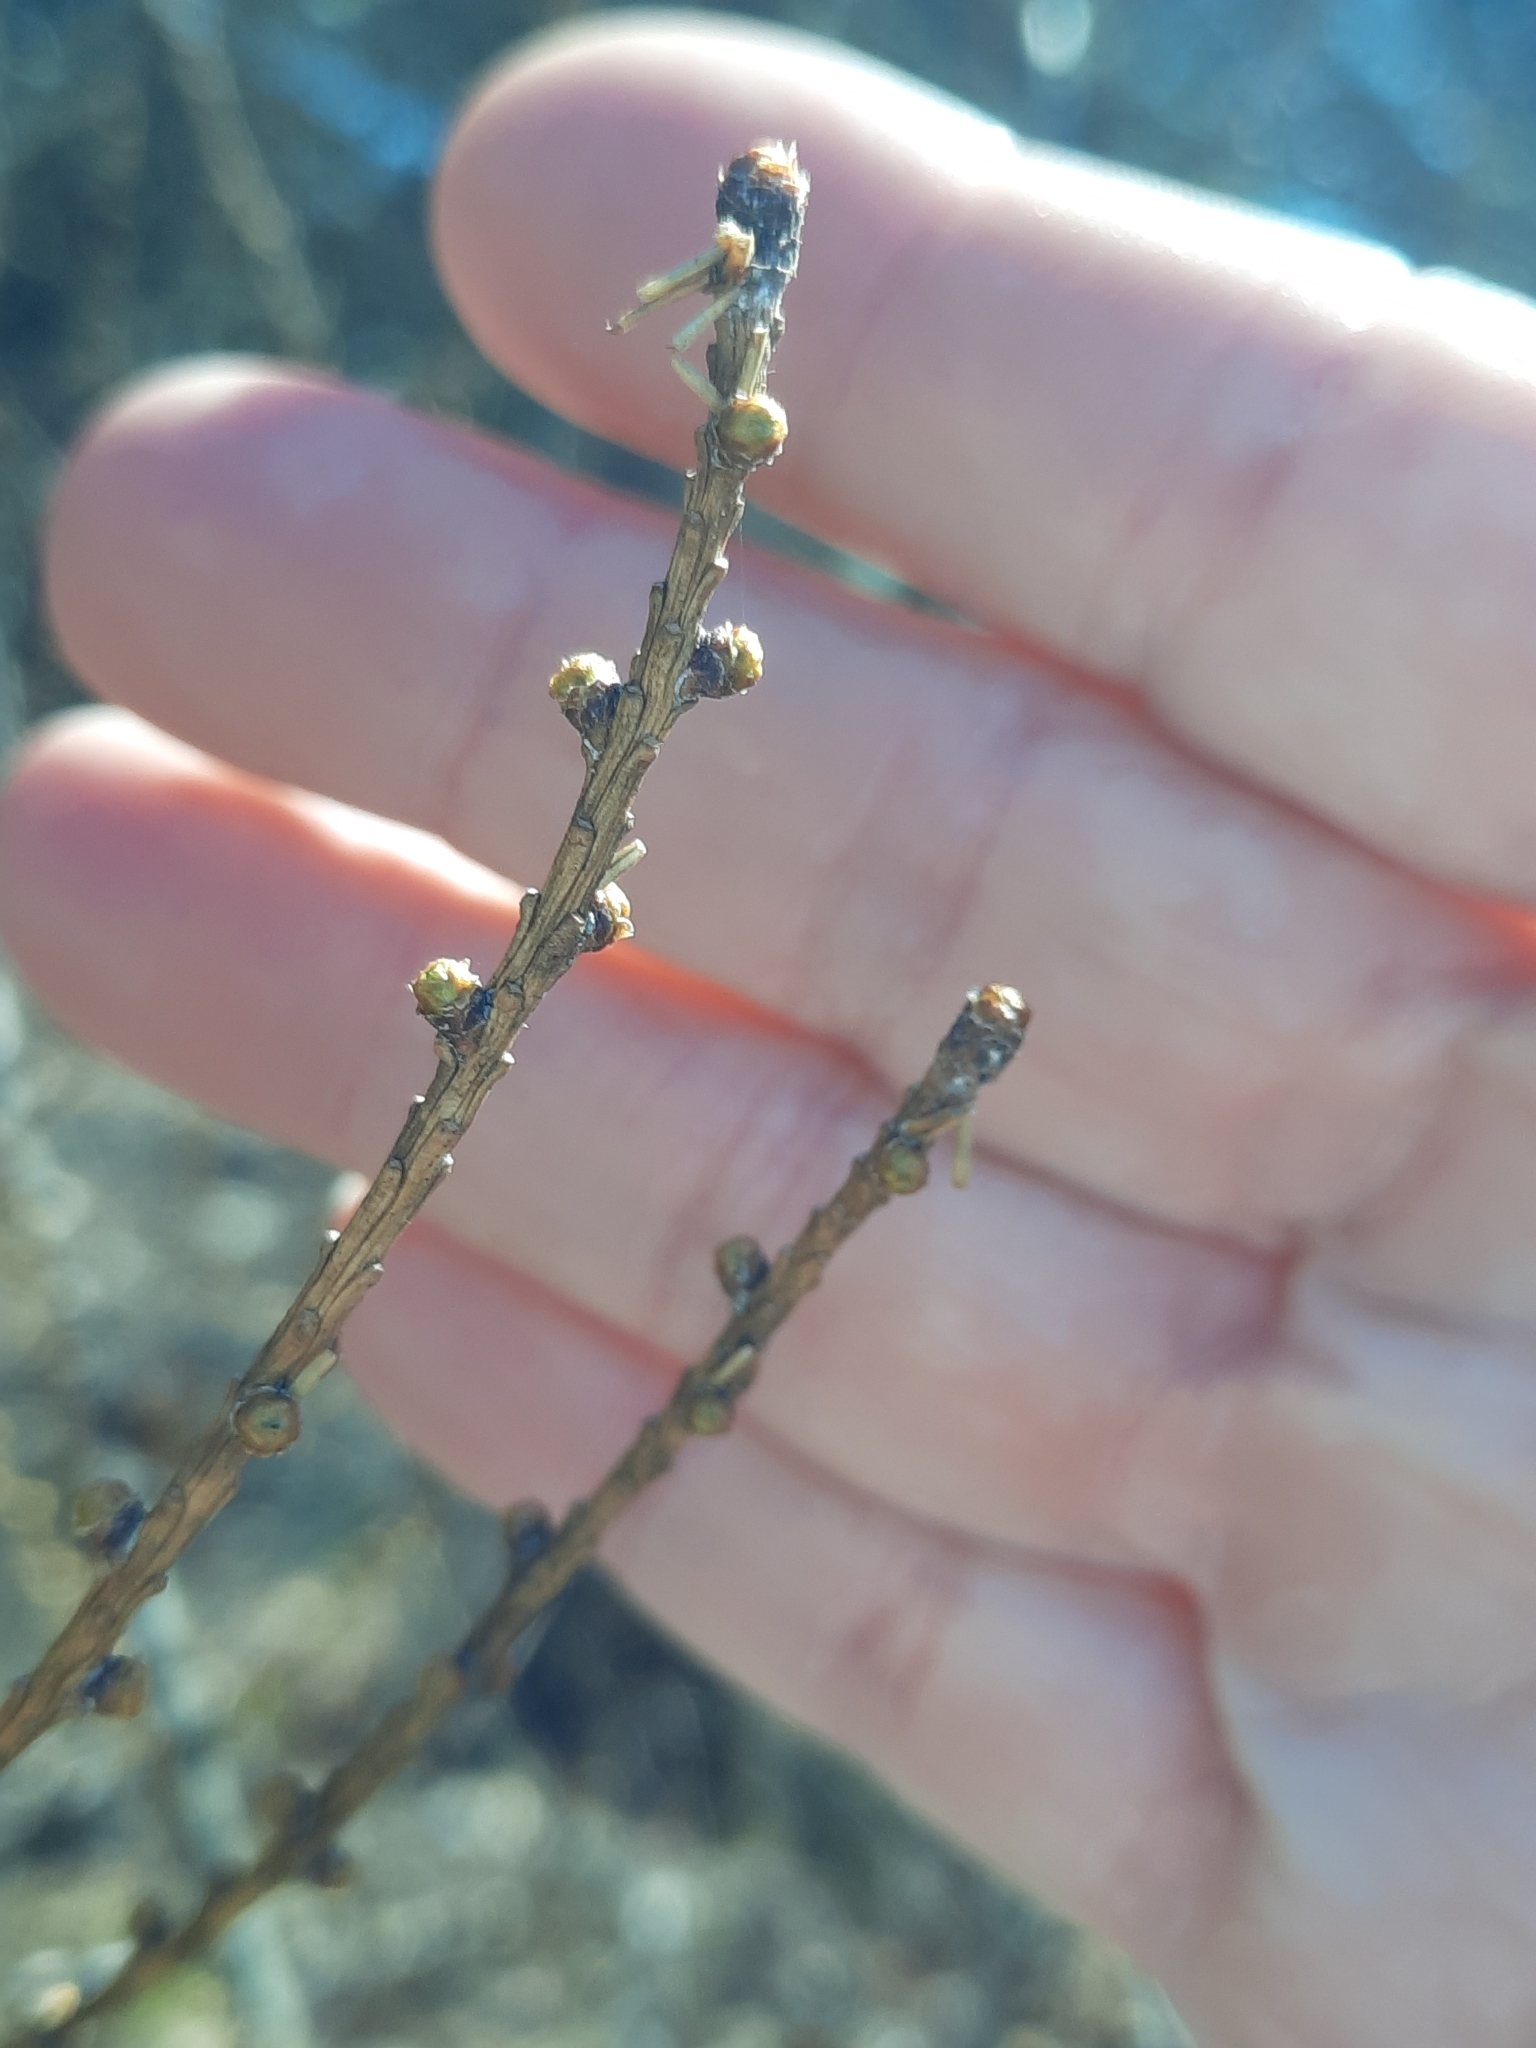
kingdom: Plantae
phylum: Tracheophyta
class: Pinopsida
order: Pinales
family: Pinaceae
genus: Larix
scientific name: Larix laricina
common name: American larch
